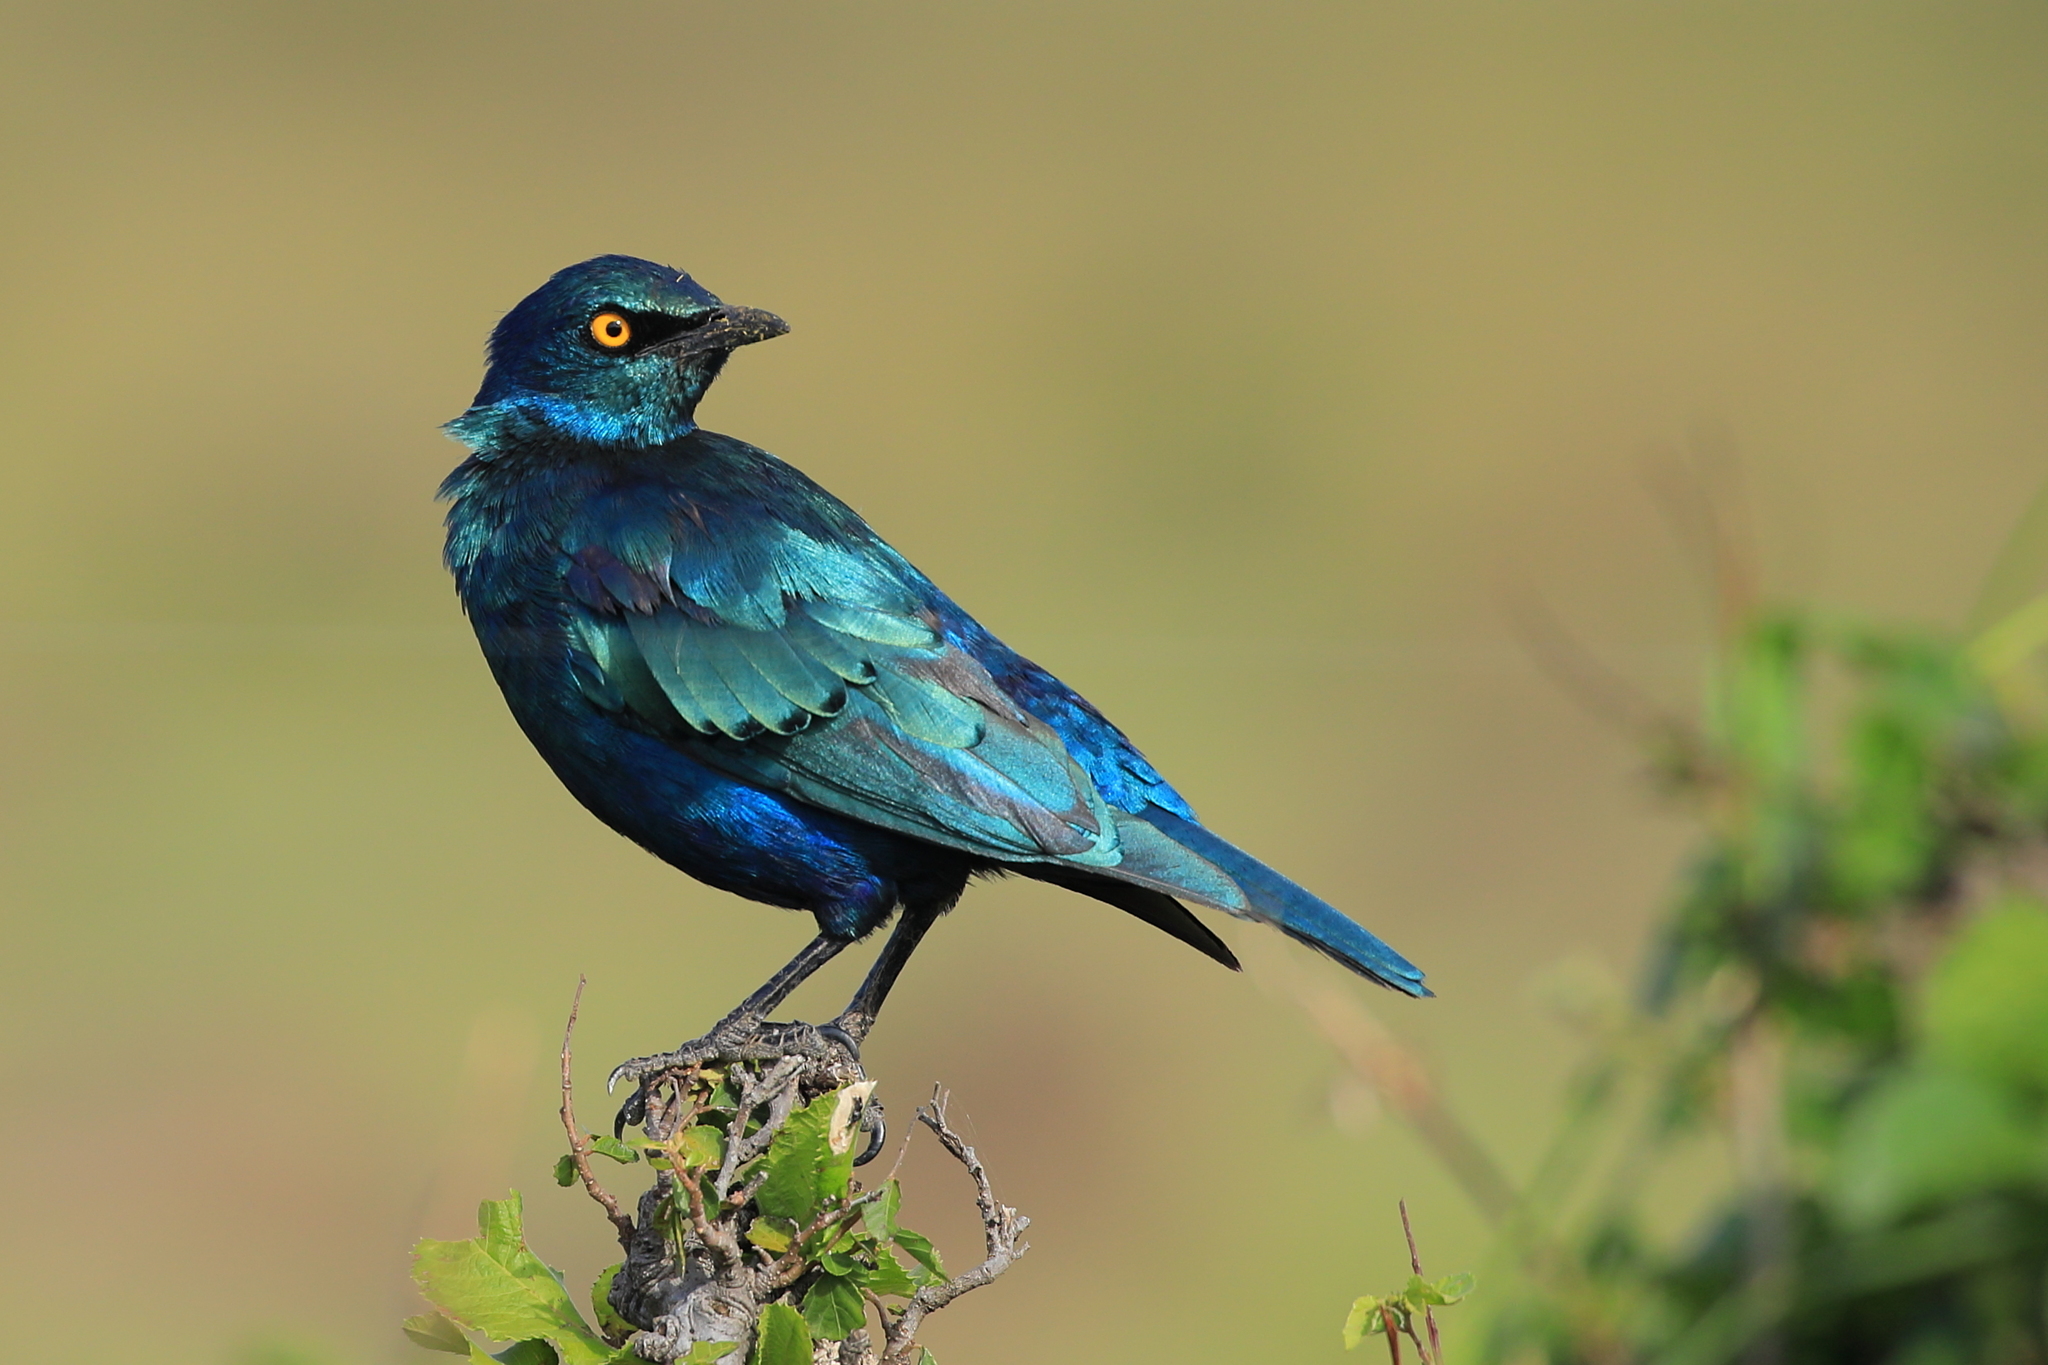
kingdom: Animalia
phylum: Chordata
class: Aves
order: Passeriformes
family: Sturnidae
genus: Lamprotornis
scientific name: Lamprotornis chalybaeus
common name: Greater blue-eared starling
